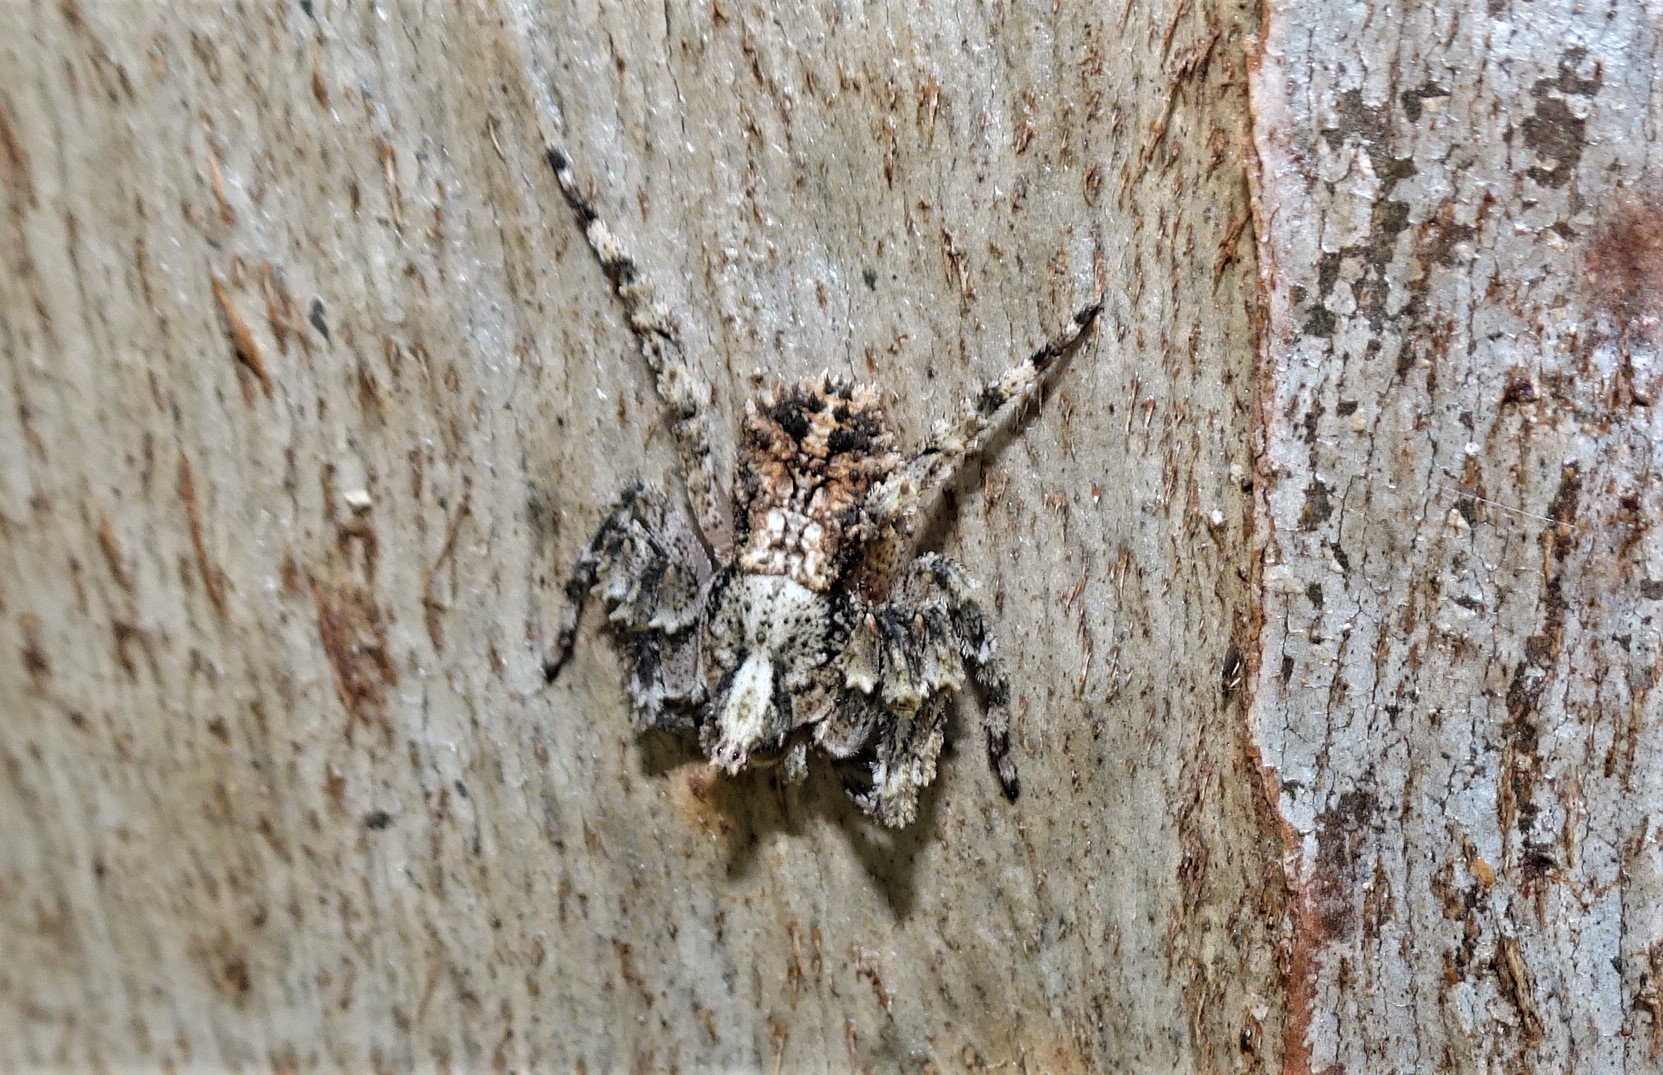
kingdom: Animalia
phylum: Arthropoda
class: Arachnida
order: Araneae
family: Thomisidae
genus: Stephanopis
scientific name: Stephanopis altifrons
